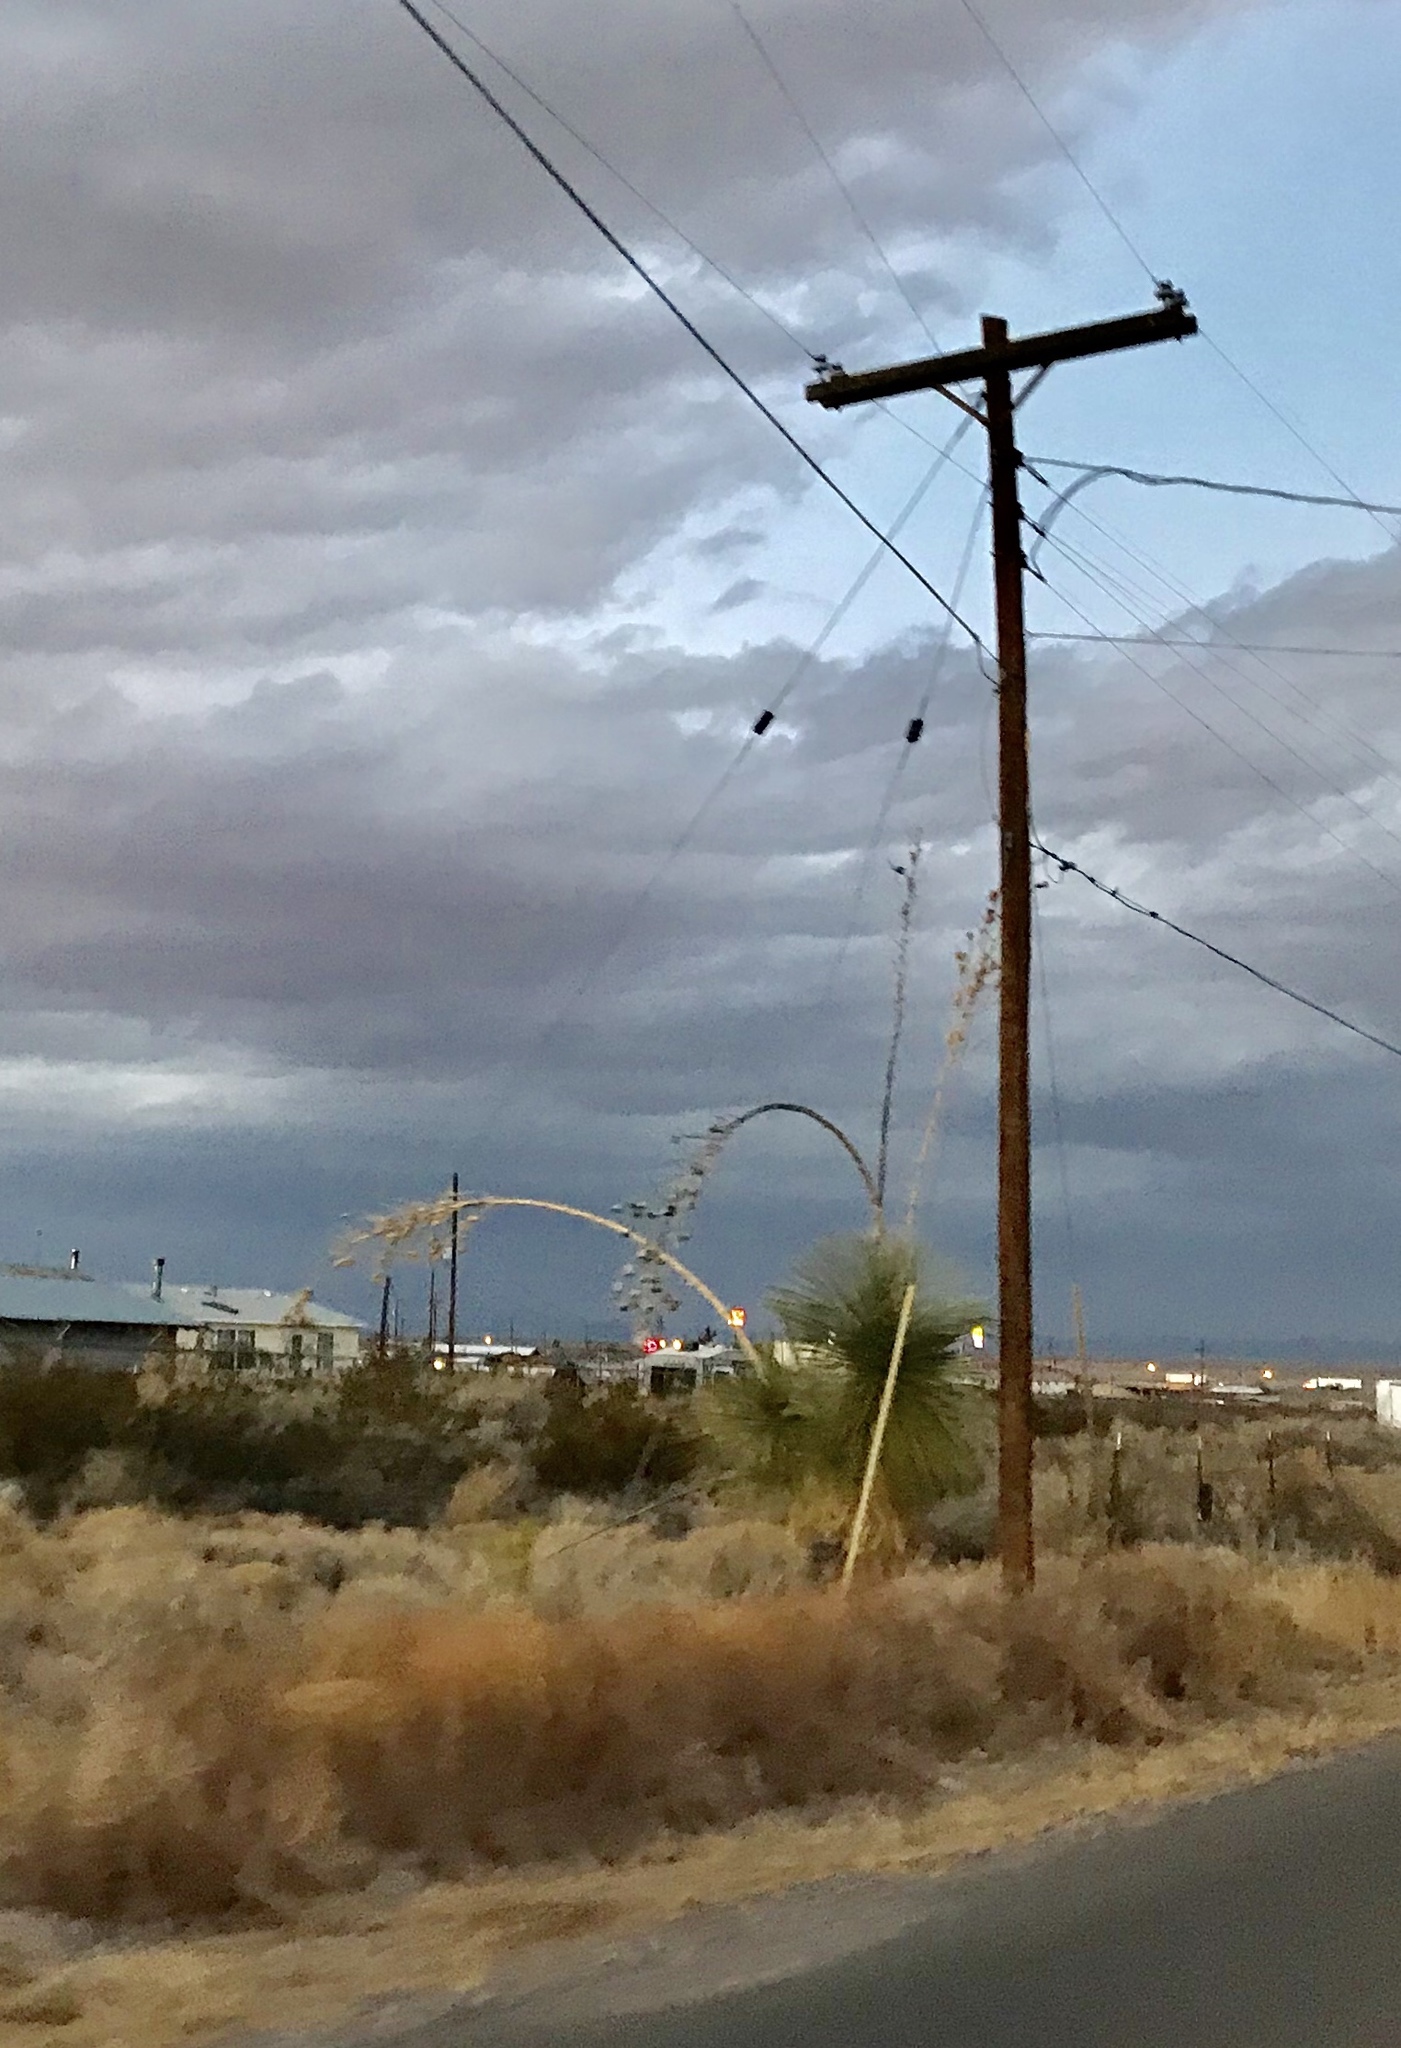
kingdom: Plantae
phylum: Tracheophyta
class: Liliopsida
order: Asparagales
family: Asparagaceae
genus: Yucca
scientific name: Yucca elata
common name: Palmella
